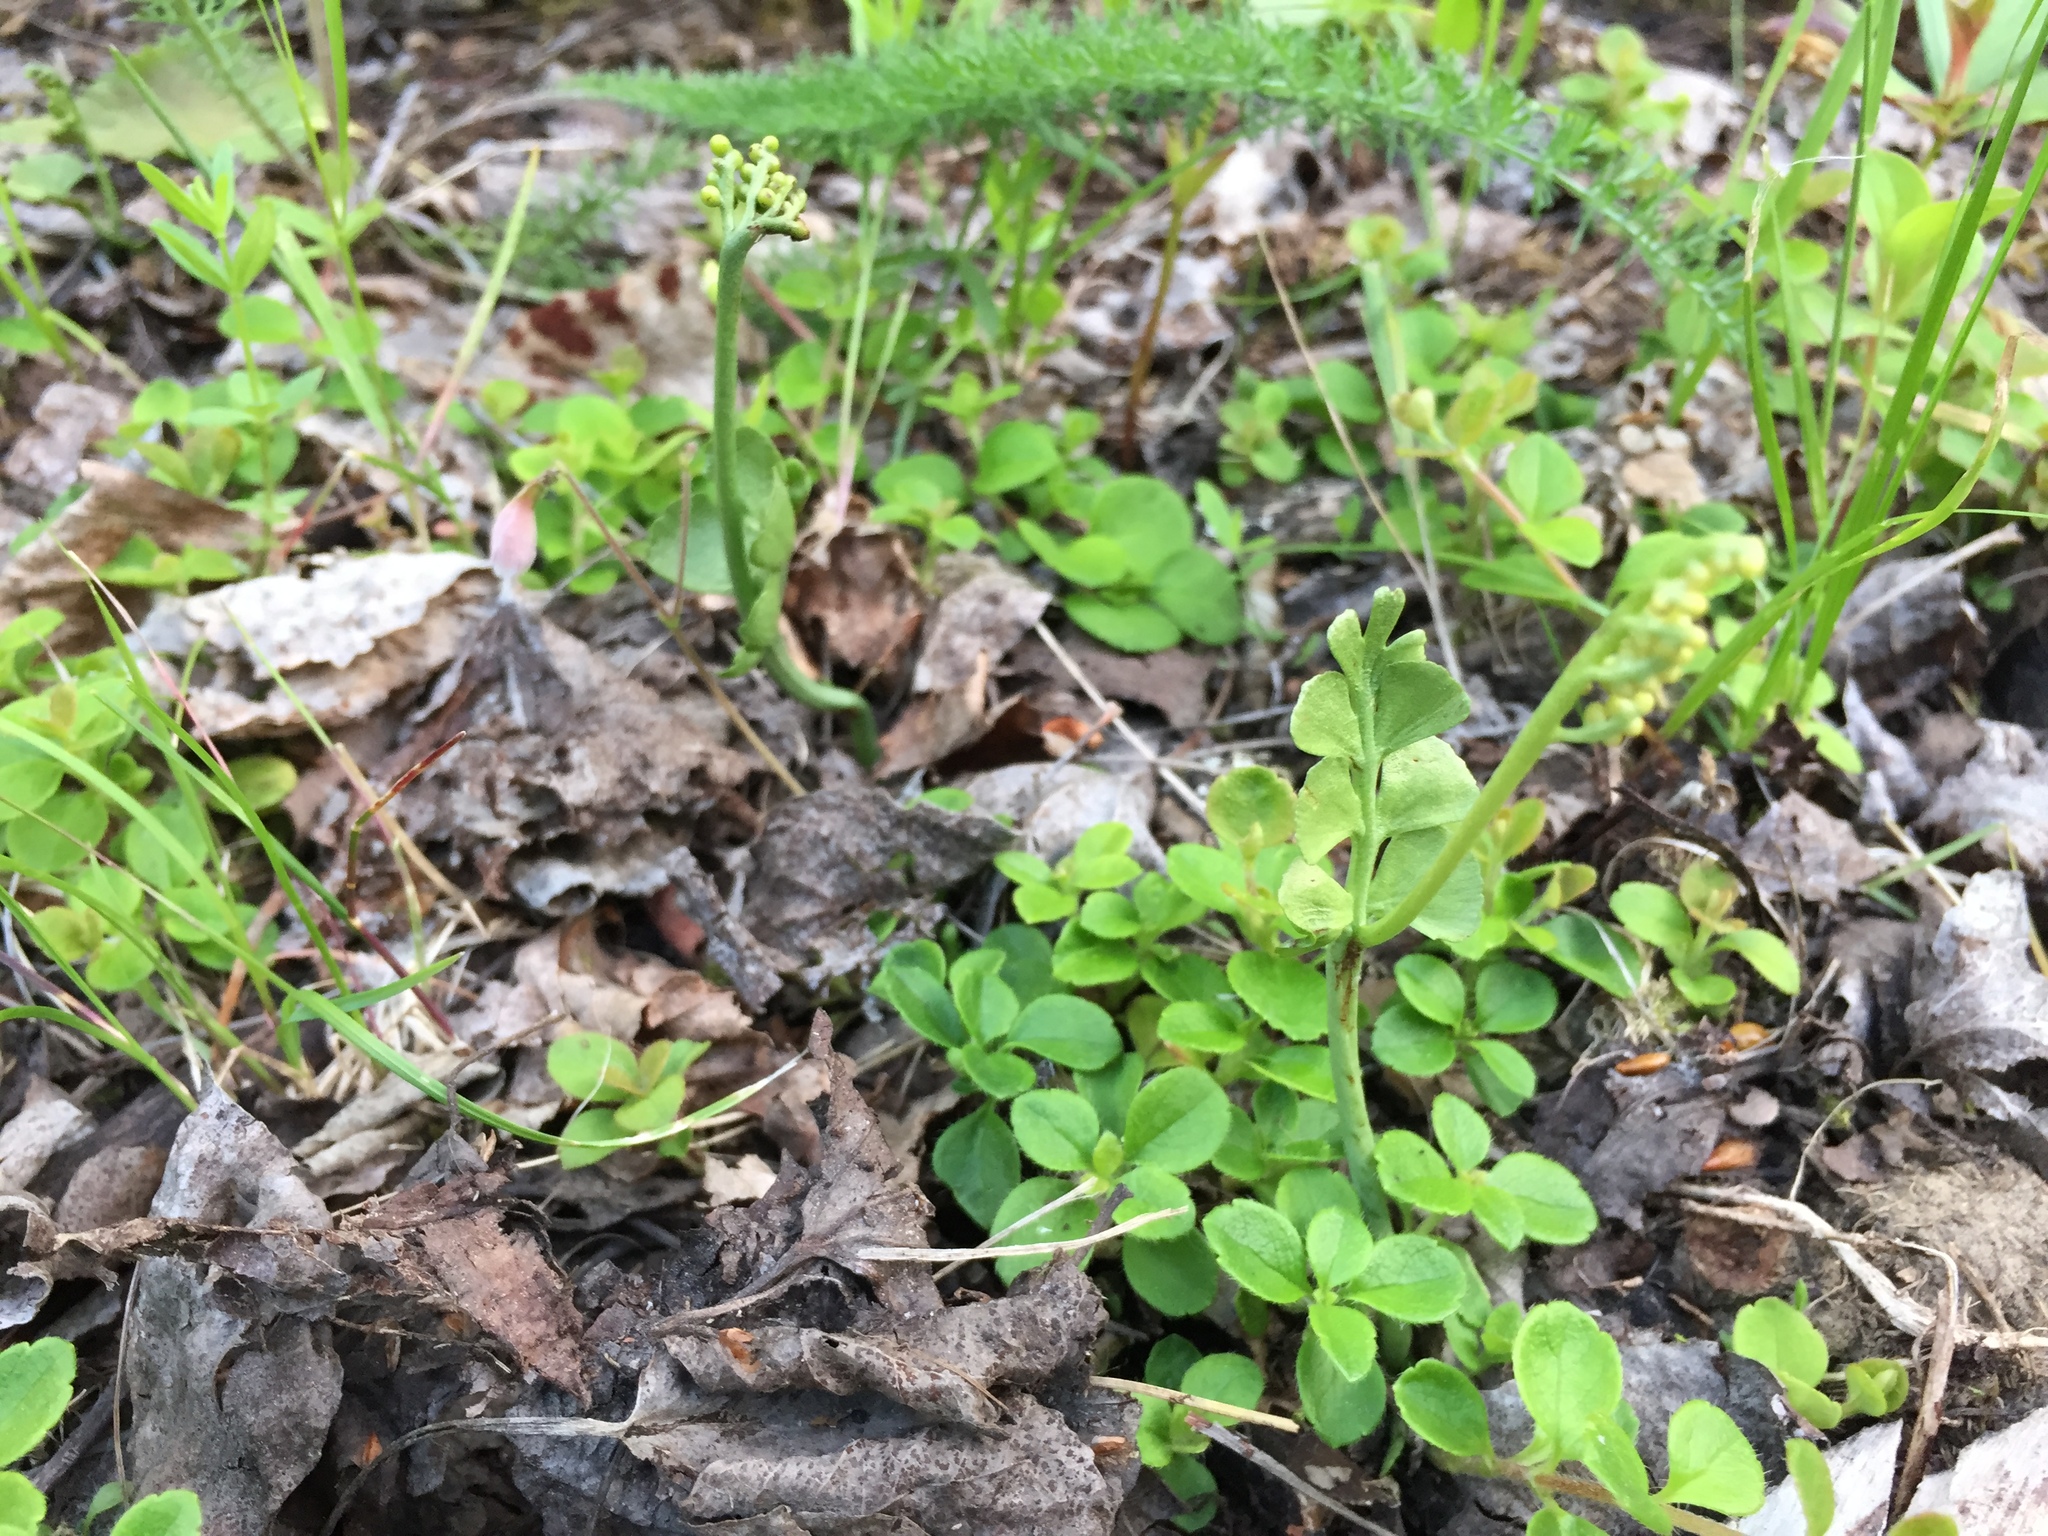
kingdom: Plantae
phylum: Tracheophyta
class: Polypodiopsida
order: Ophioglossales
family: Ophioglossaceae
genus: Botrychium
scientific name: Botrychium neolunaria
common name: New world moonwort
